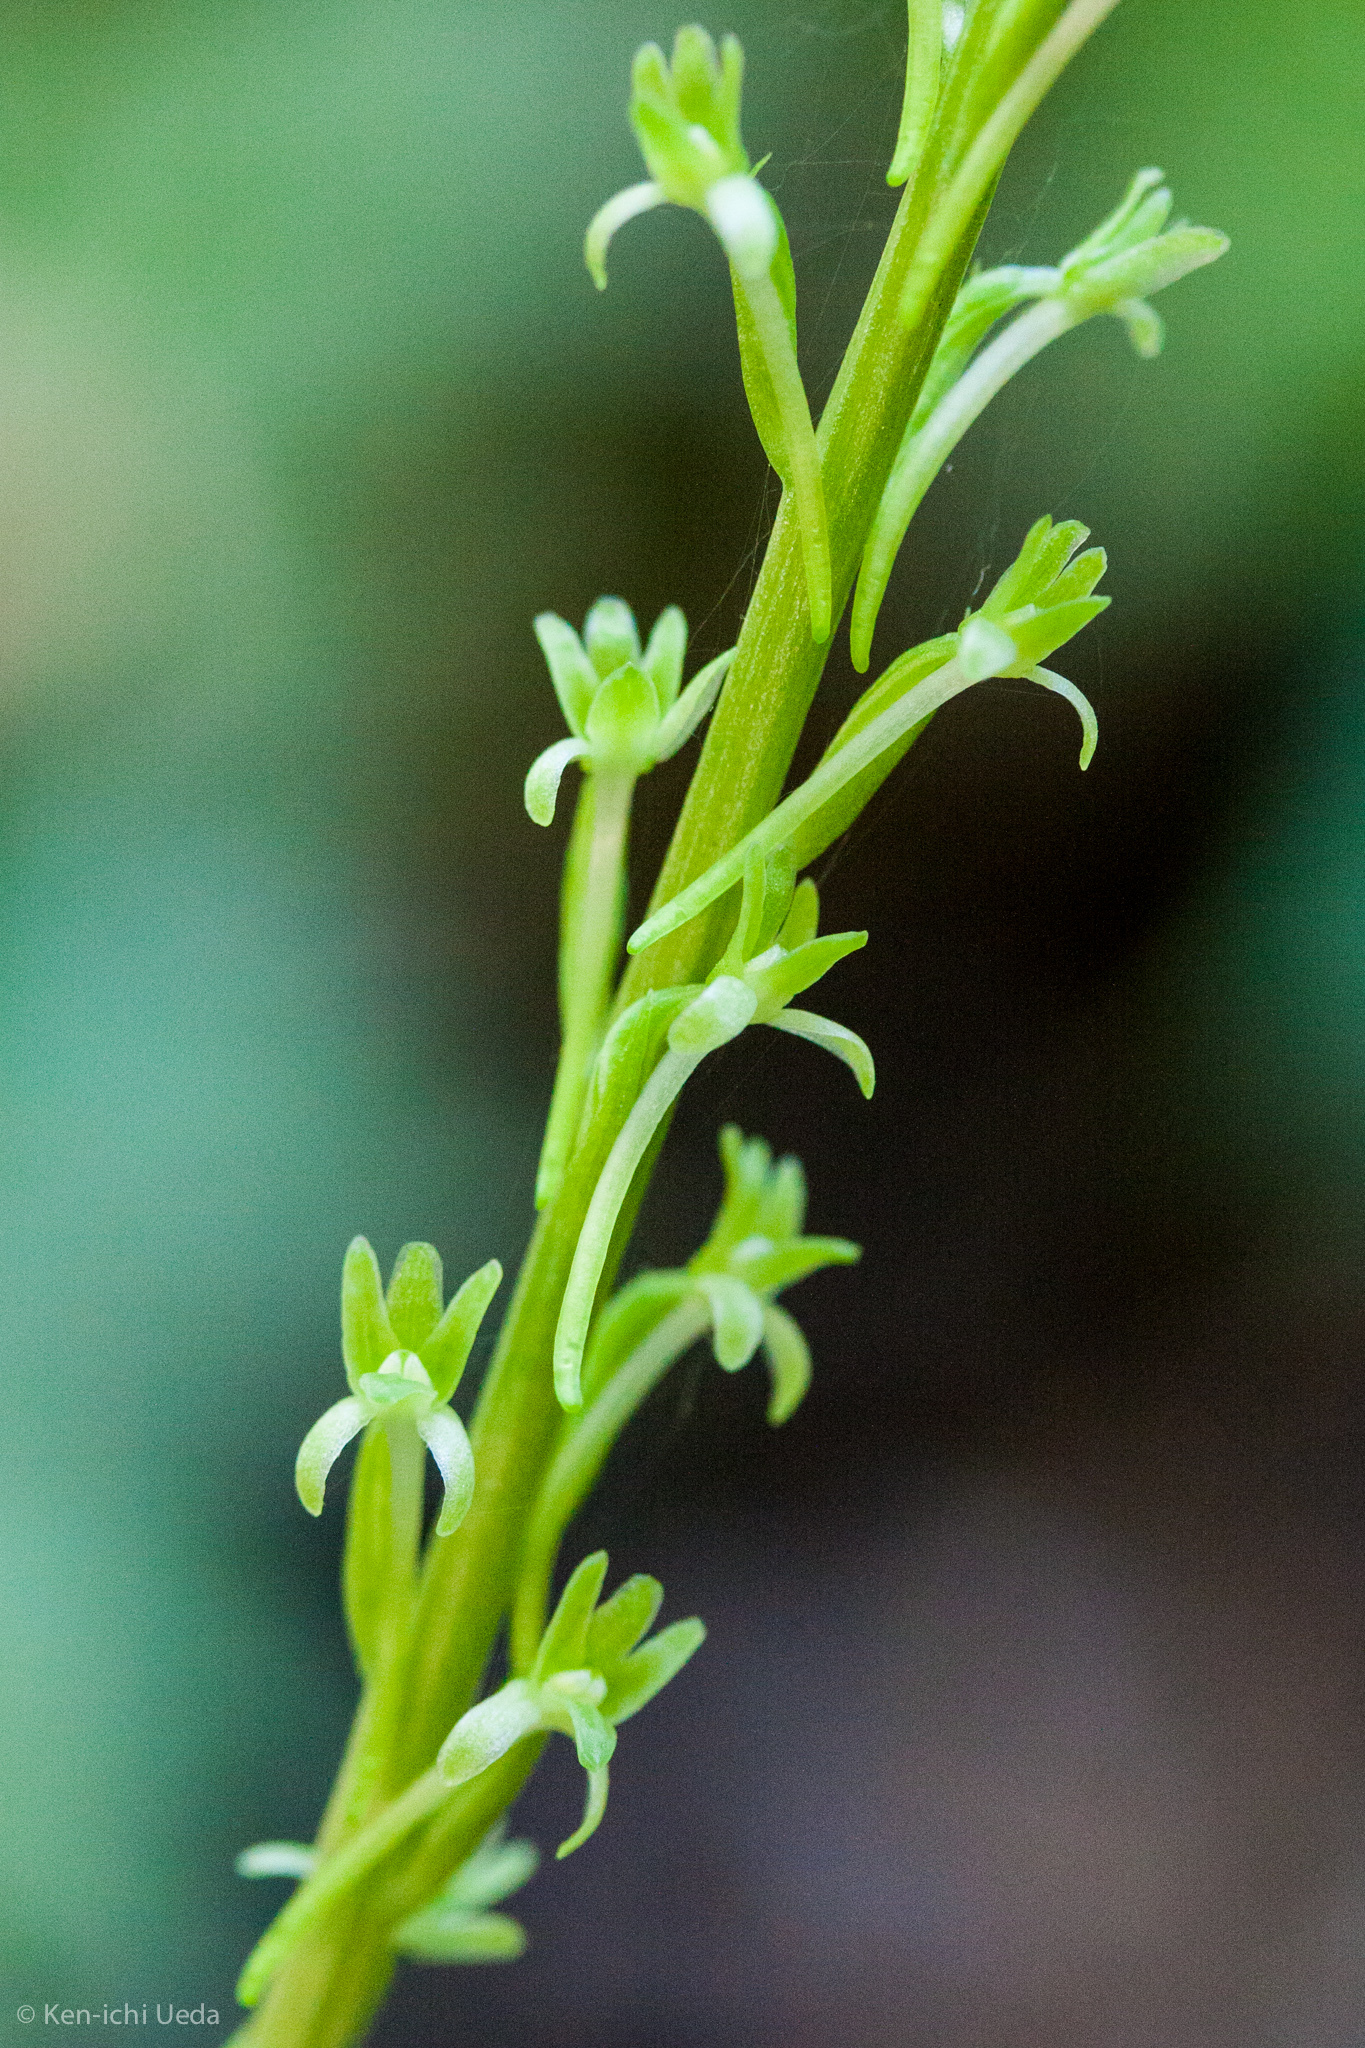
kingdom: Plantae
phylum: Tracheophyta
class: Liliopsida
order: Asparagales
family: Orchidaceae
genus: Platanthera
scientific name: Platanthera elongata
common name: Dense-flowered rein orchid
